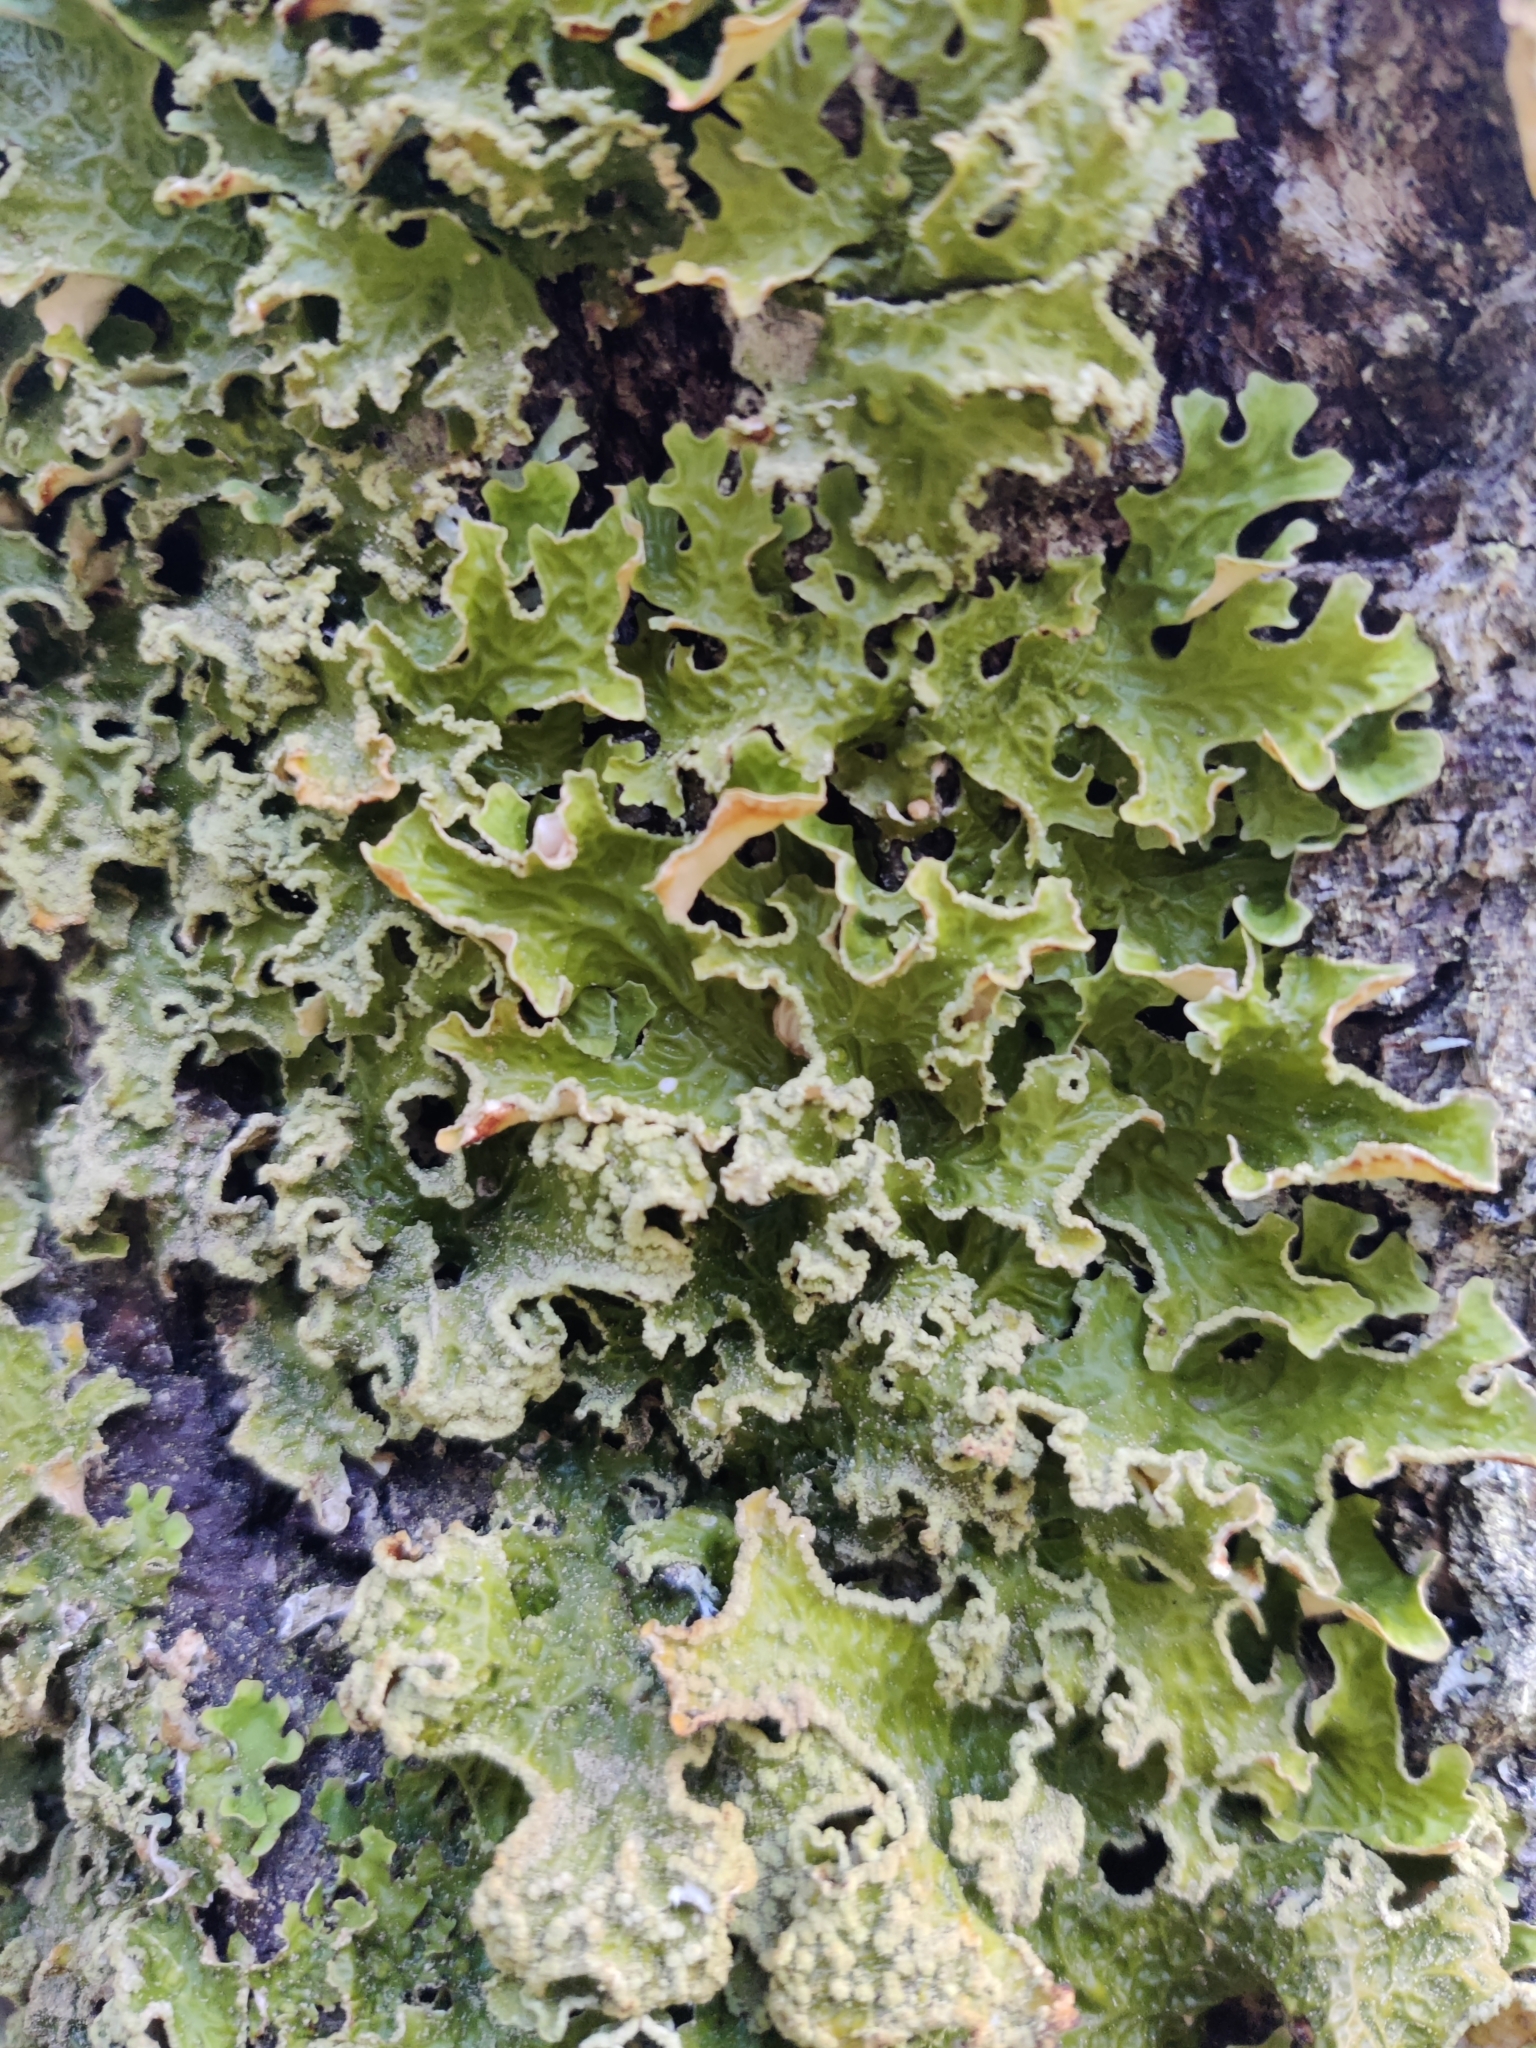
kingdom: Fungi
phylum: Ascomycota
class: Lecanoromycetes
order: Peltigerales
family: Lobariaceae
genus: Lobaria
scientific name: Lobaria pulmonaria
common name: Lungwort
